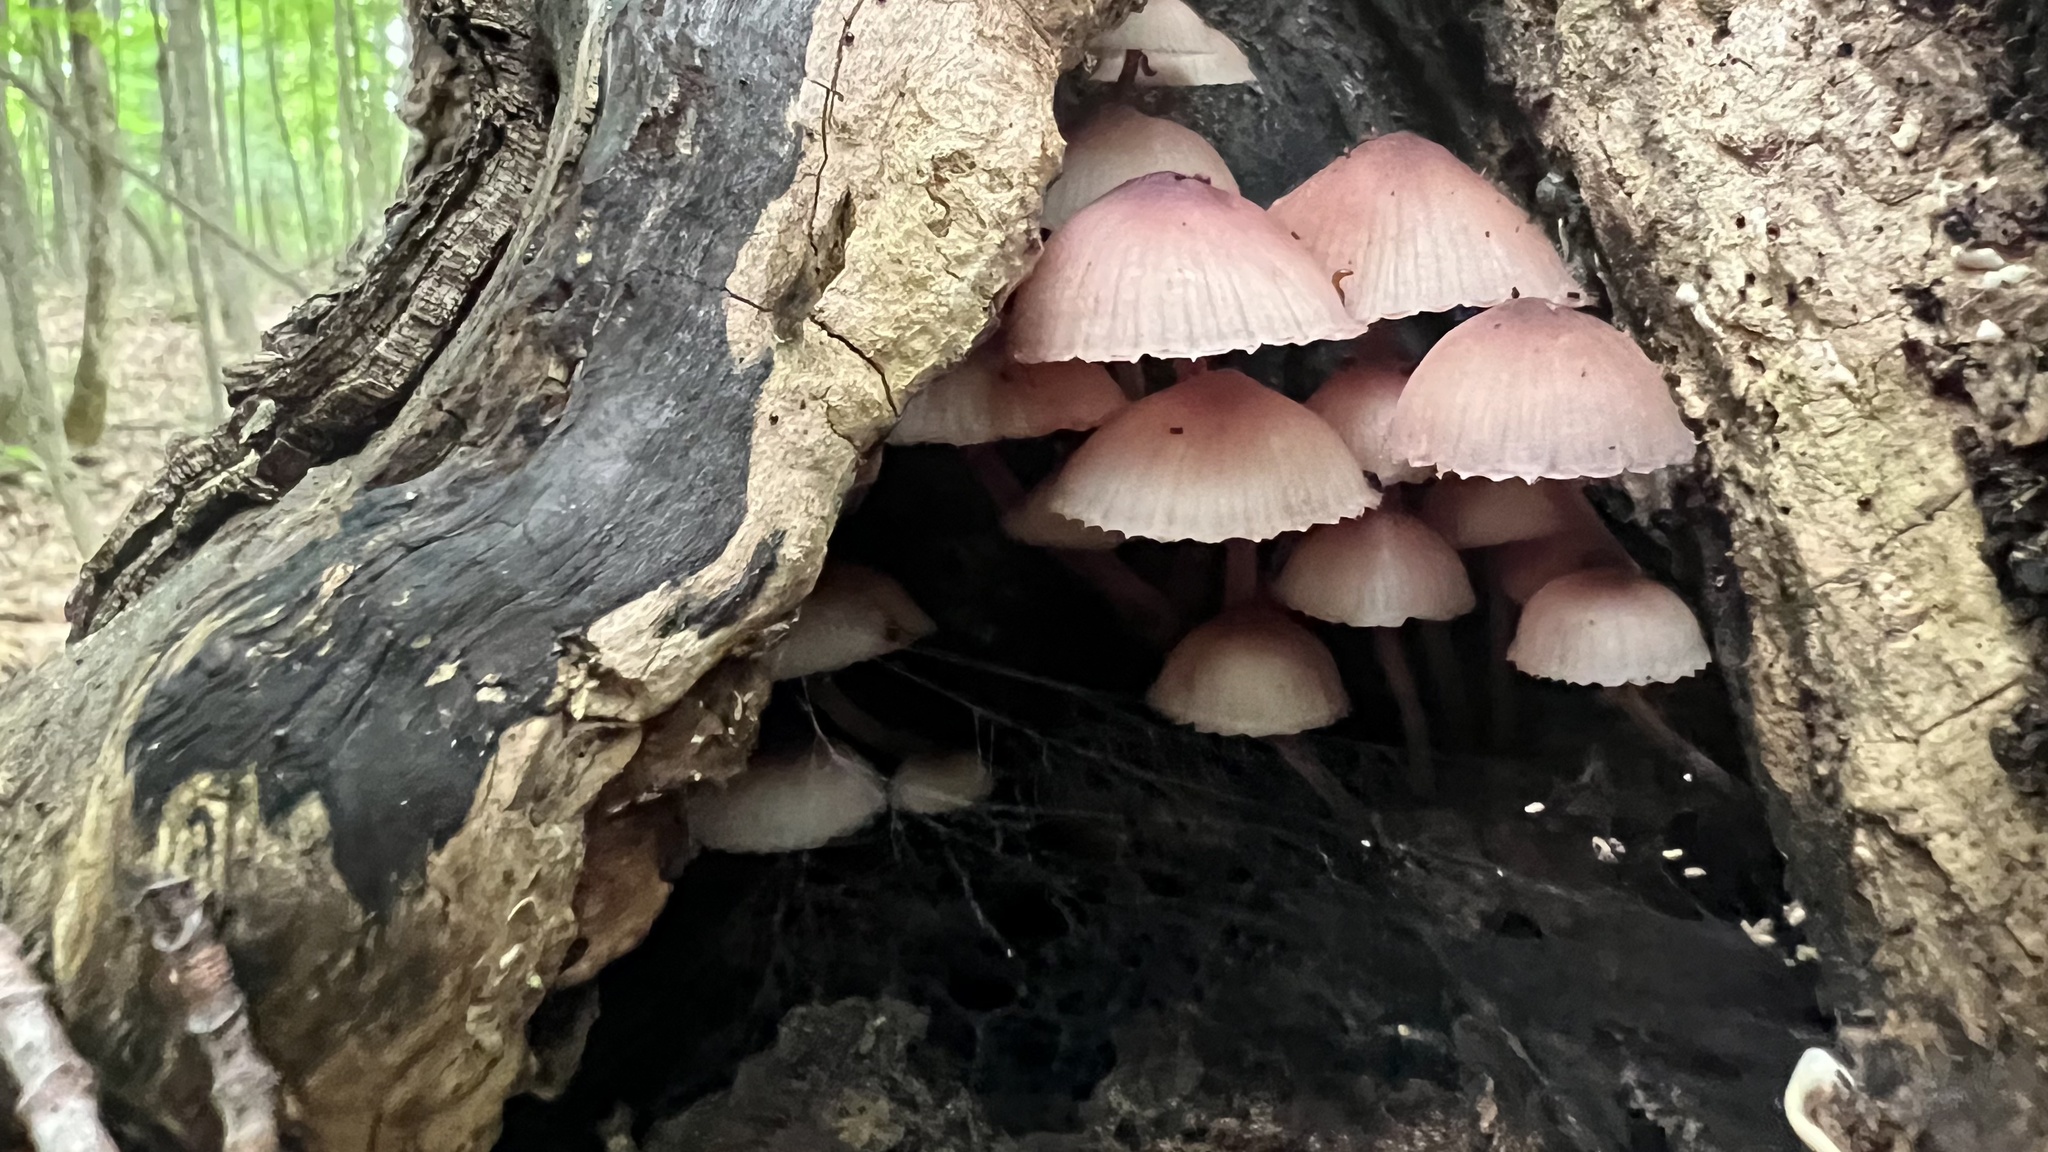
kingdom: Fungi
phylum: Basidiomycota
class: Agaricomycetes
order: Agaricales
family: Mycenaceae
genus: Mycena
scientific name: Mycena haematopus
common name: Burgundydrop bonnet
